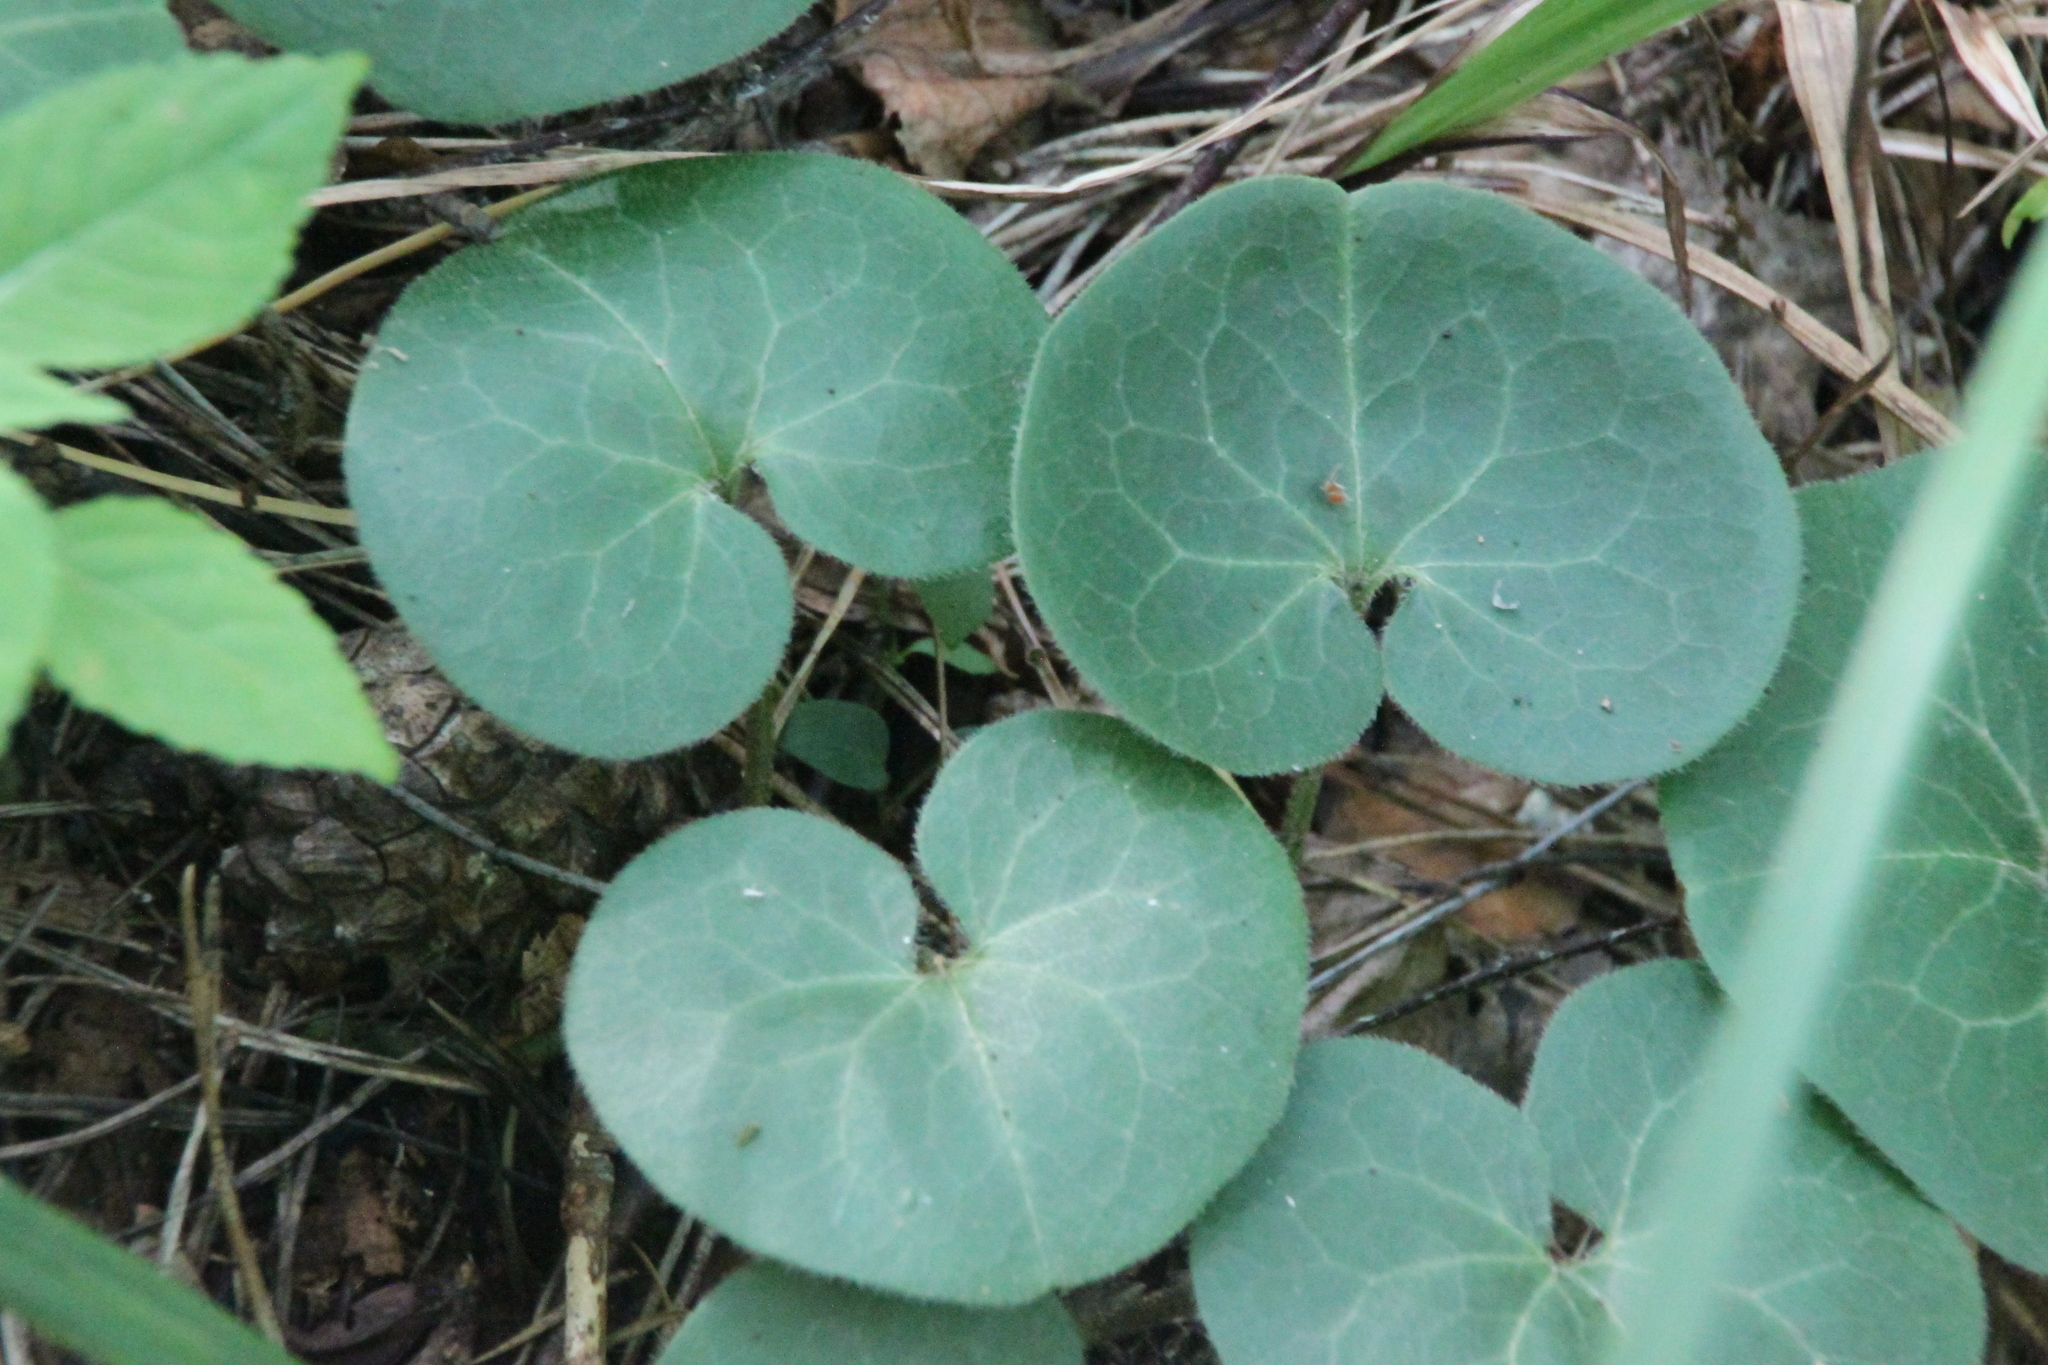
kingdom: Plantae
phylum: Tracheophyta
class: Magnoliopsida
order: Piperales
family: Aristolochiaceae
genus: Asarum
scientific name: Asarum europaeum
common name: Asarabacca
